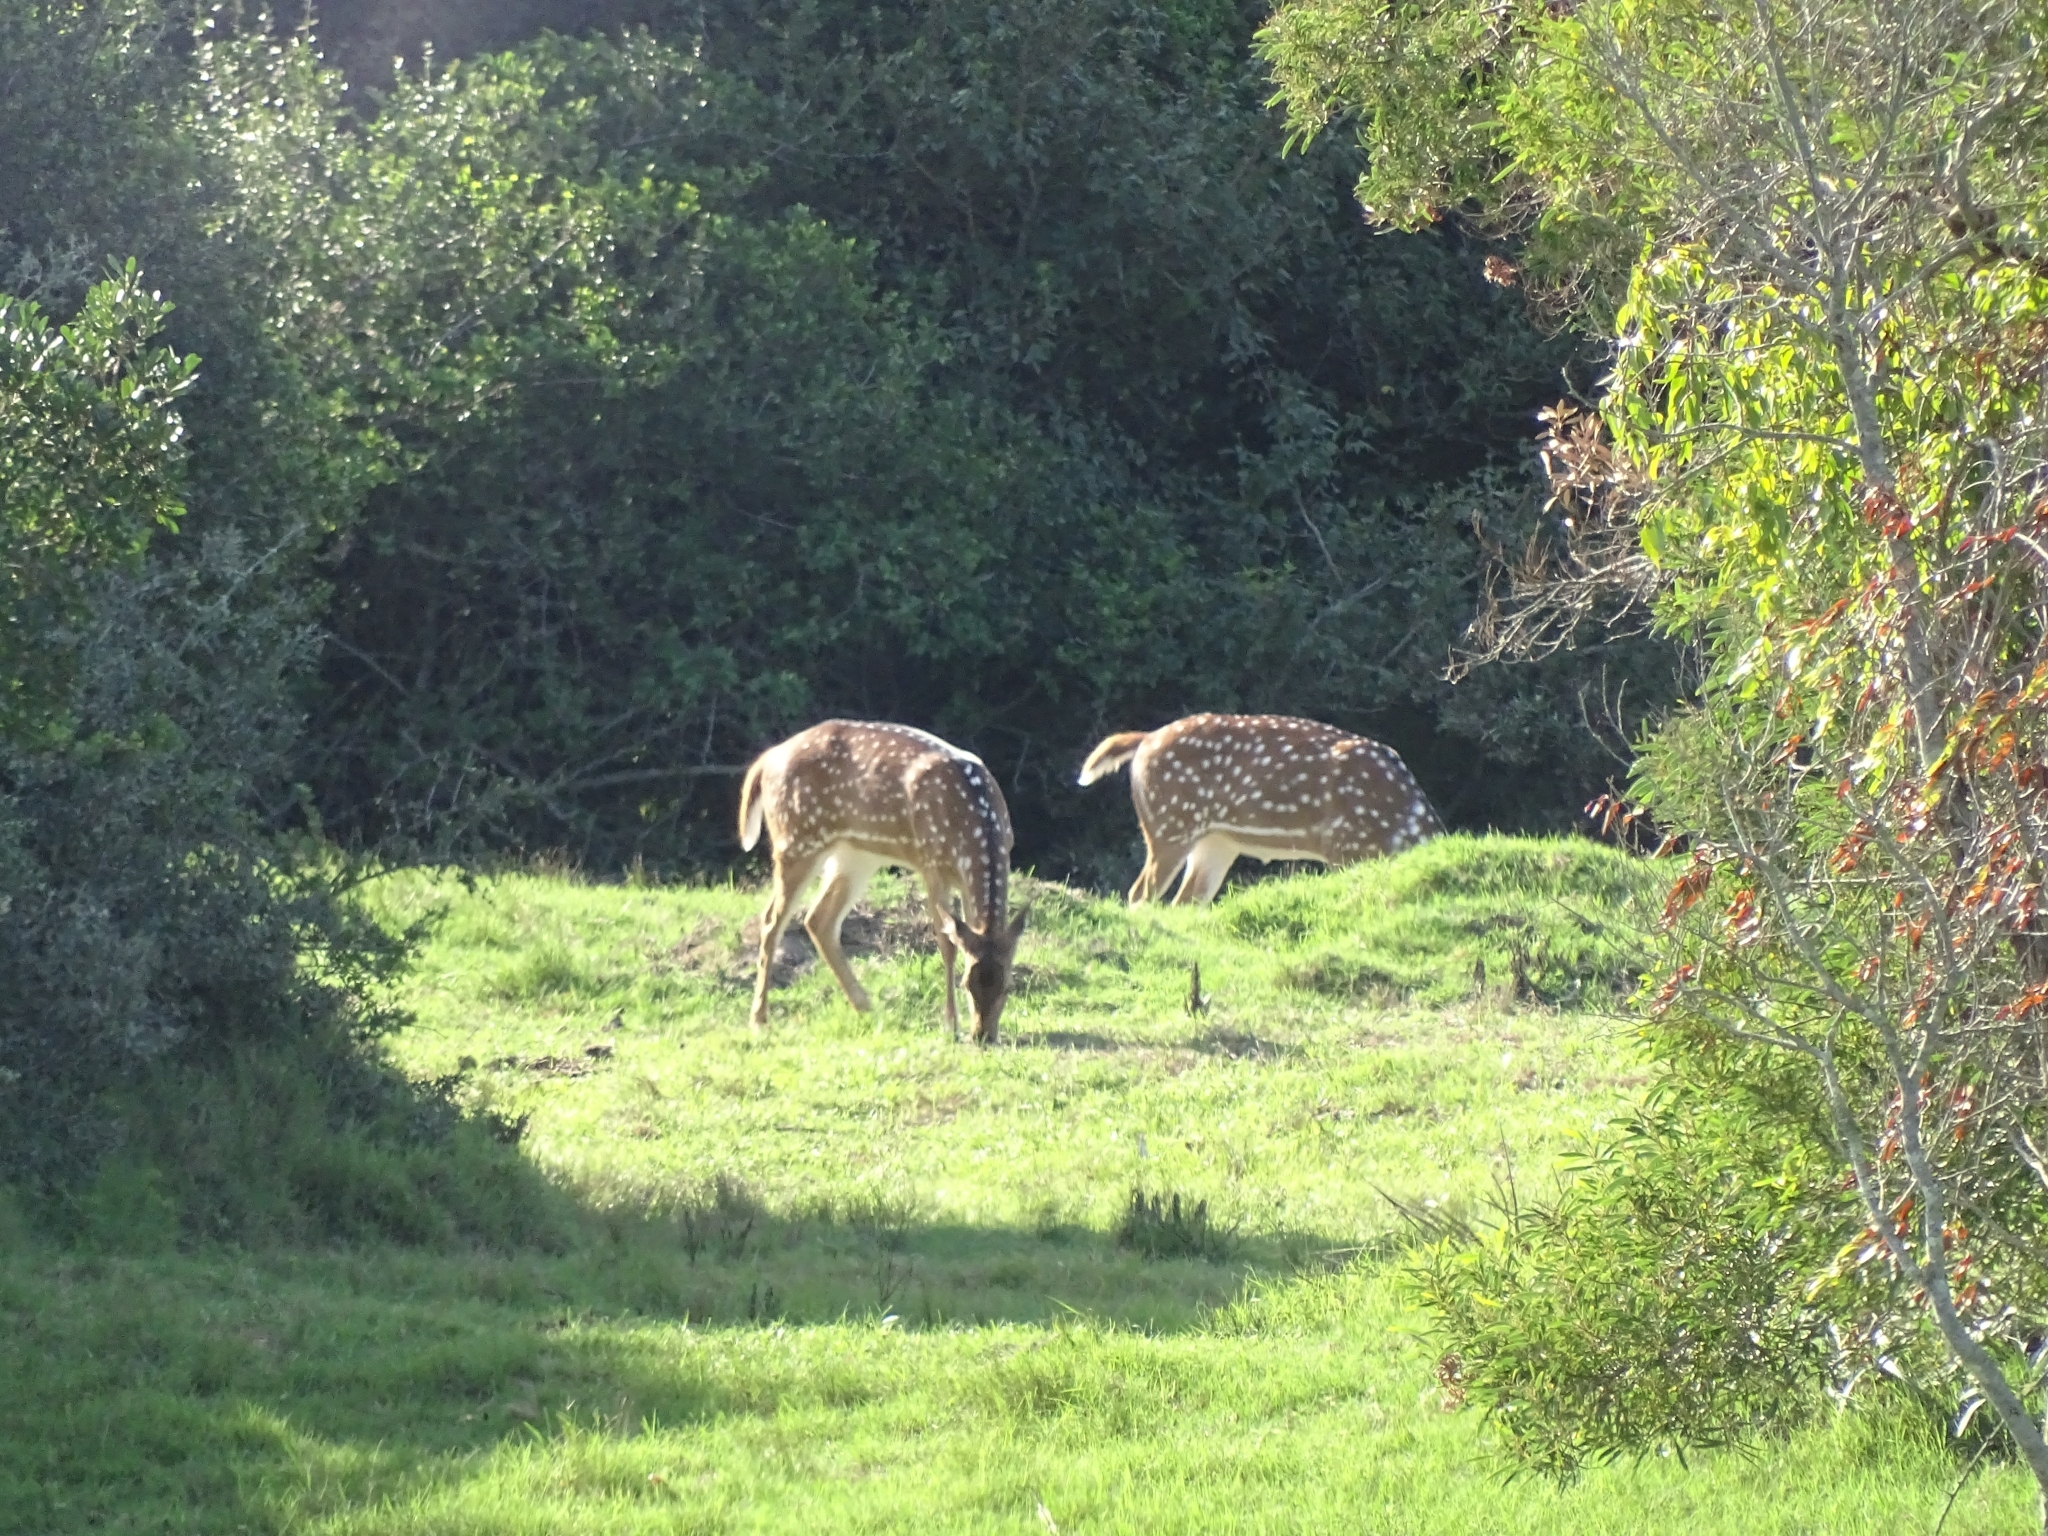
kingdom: Animalia
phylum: Chordata
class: Mammalia
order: Artiodactyla
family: Cervidae
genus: Axis
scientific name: Axis axis
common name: Chital
